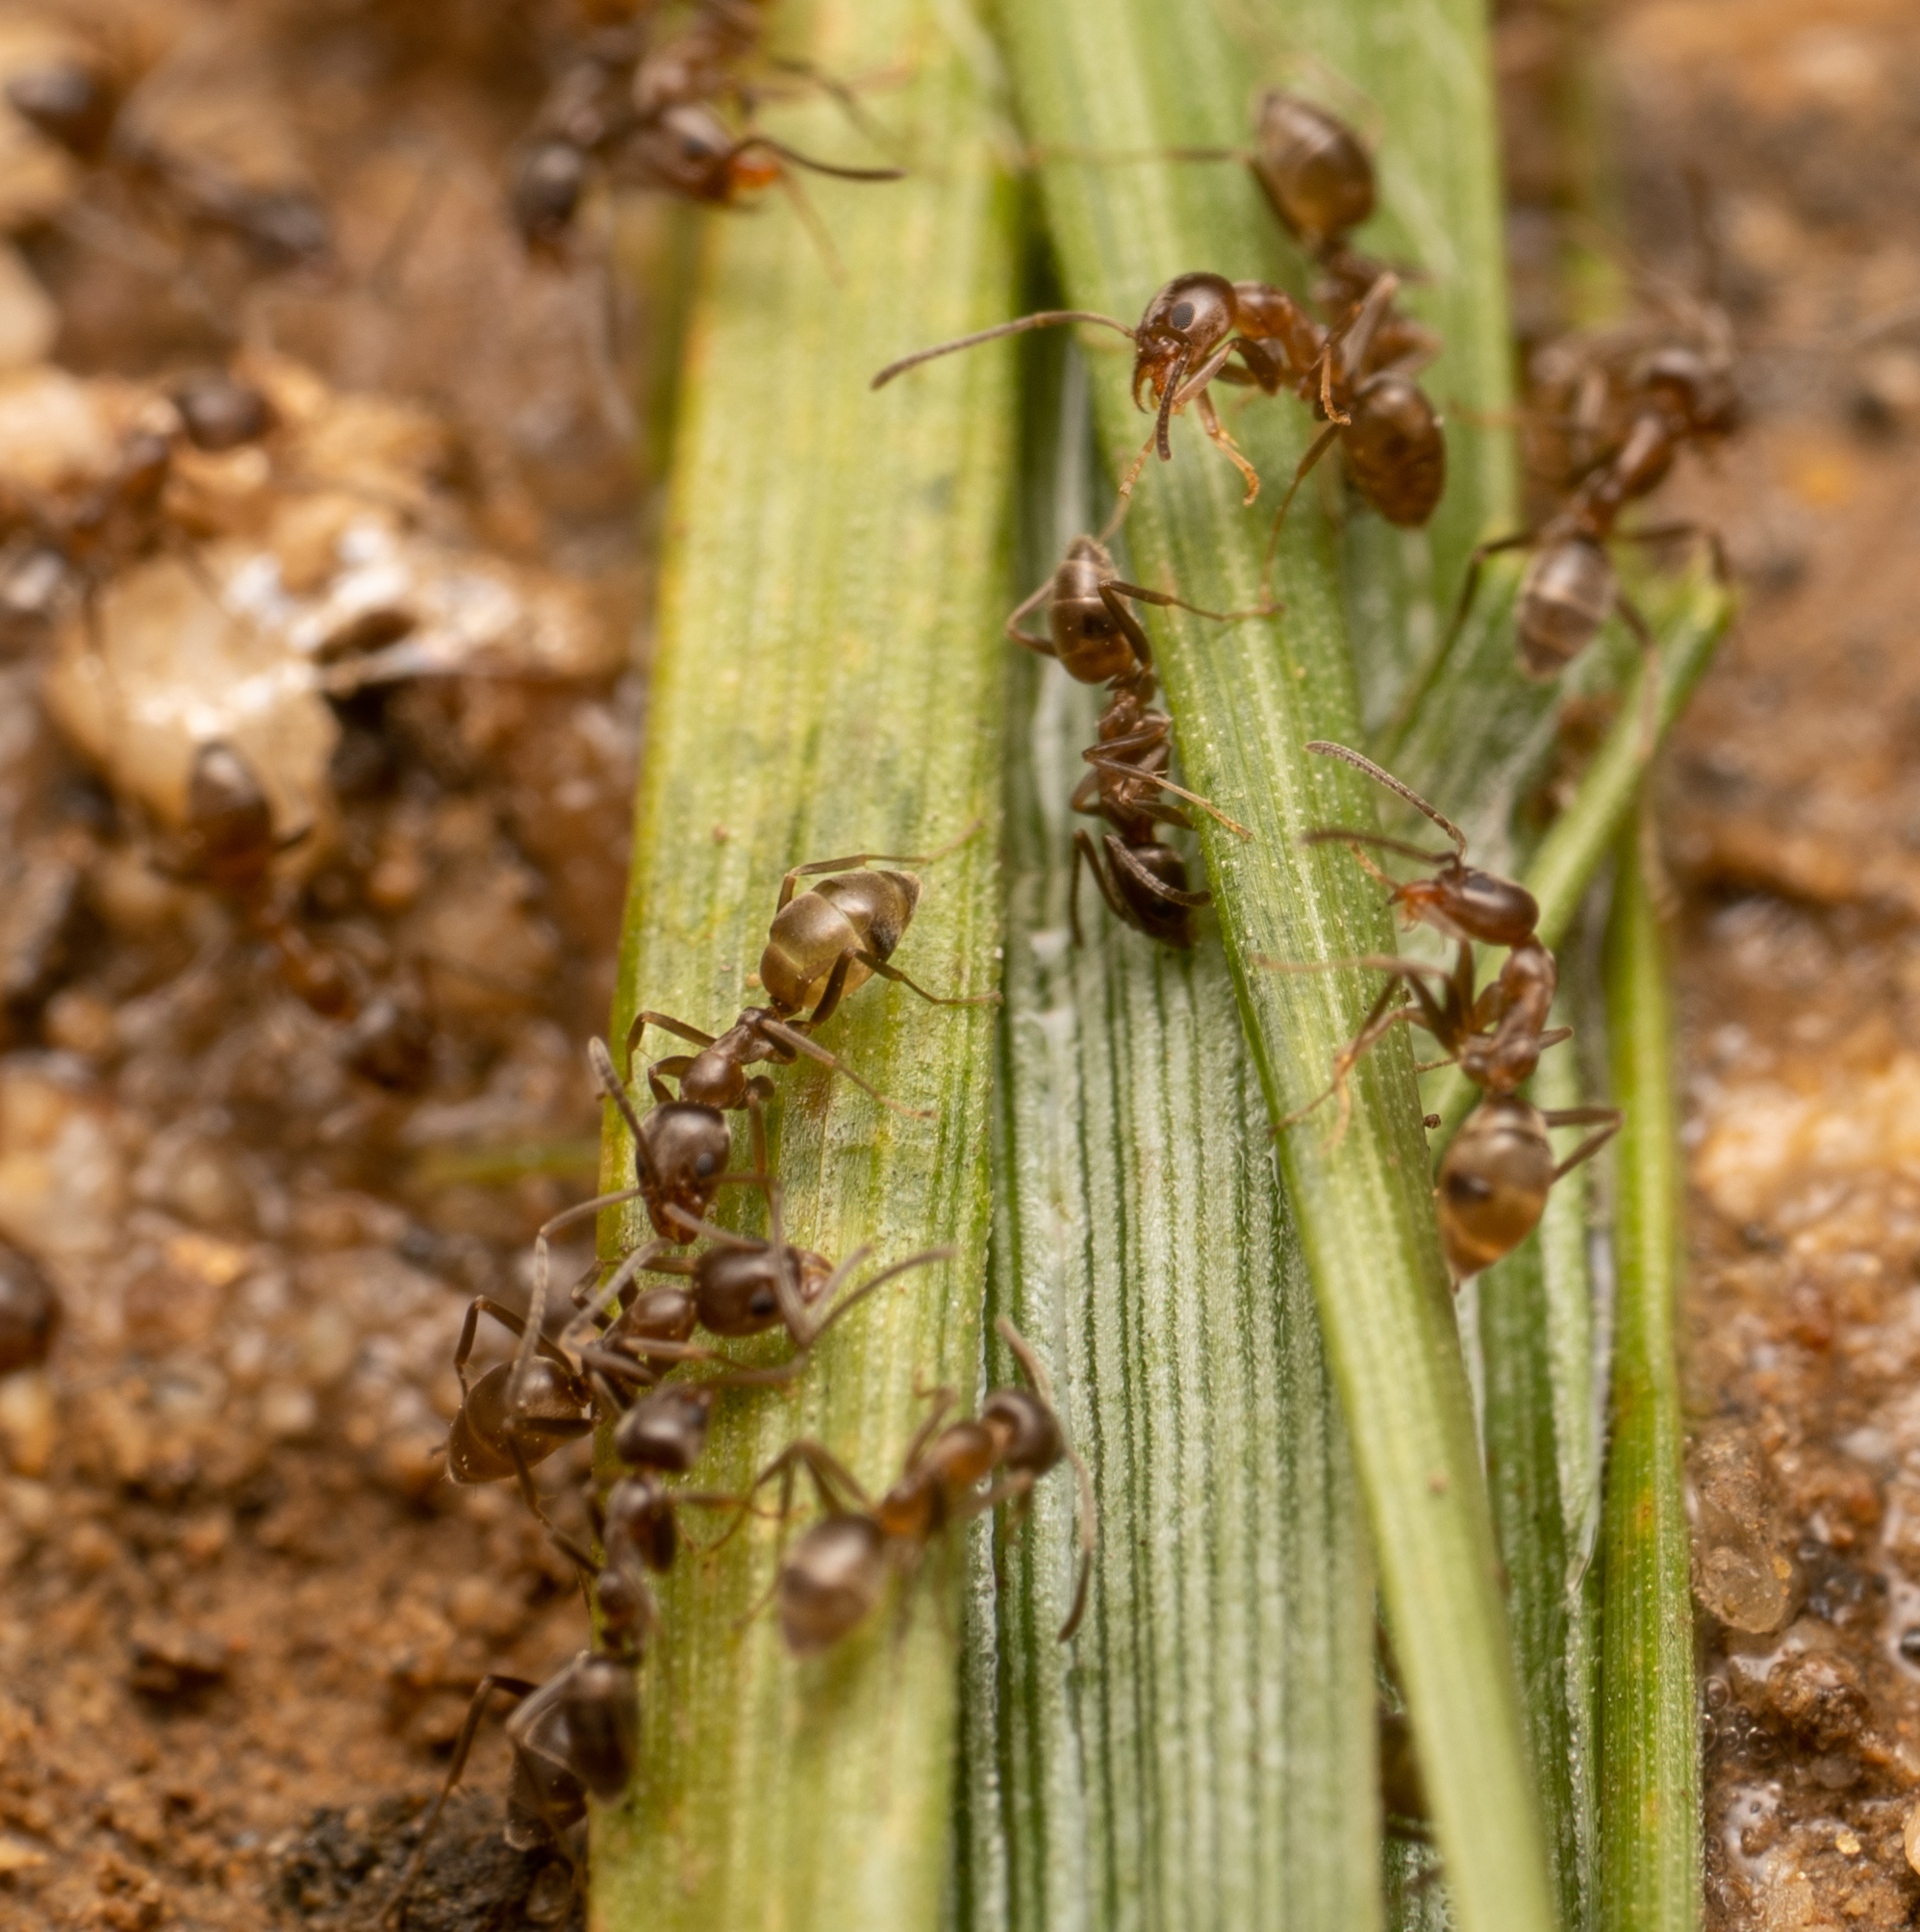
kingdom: Animalia
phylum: Arthropoda
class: Insecta
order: Hymenoptera
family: Formicidae
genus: Linepithema
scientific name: Linepithema humile
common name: Argentine ant
